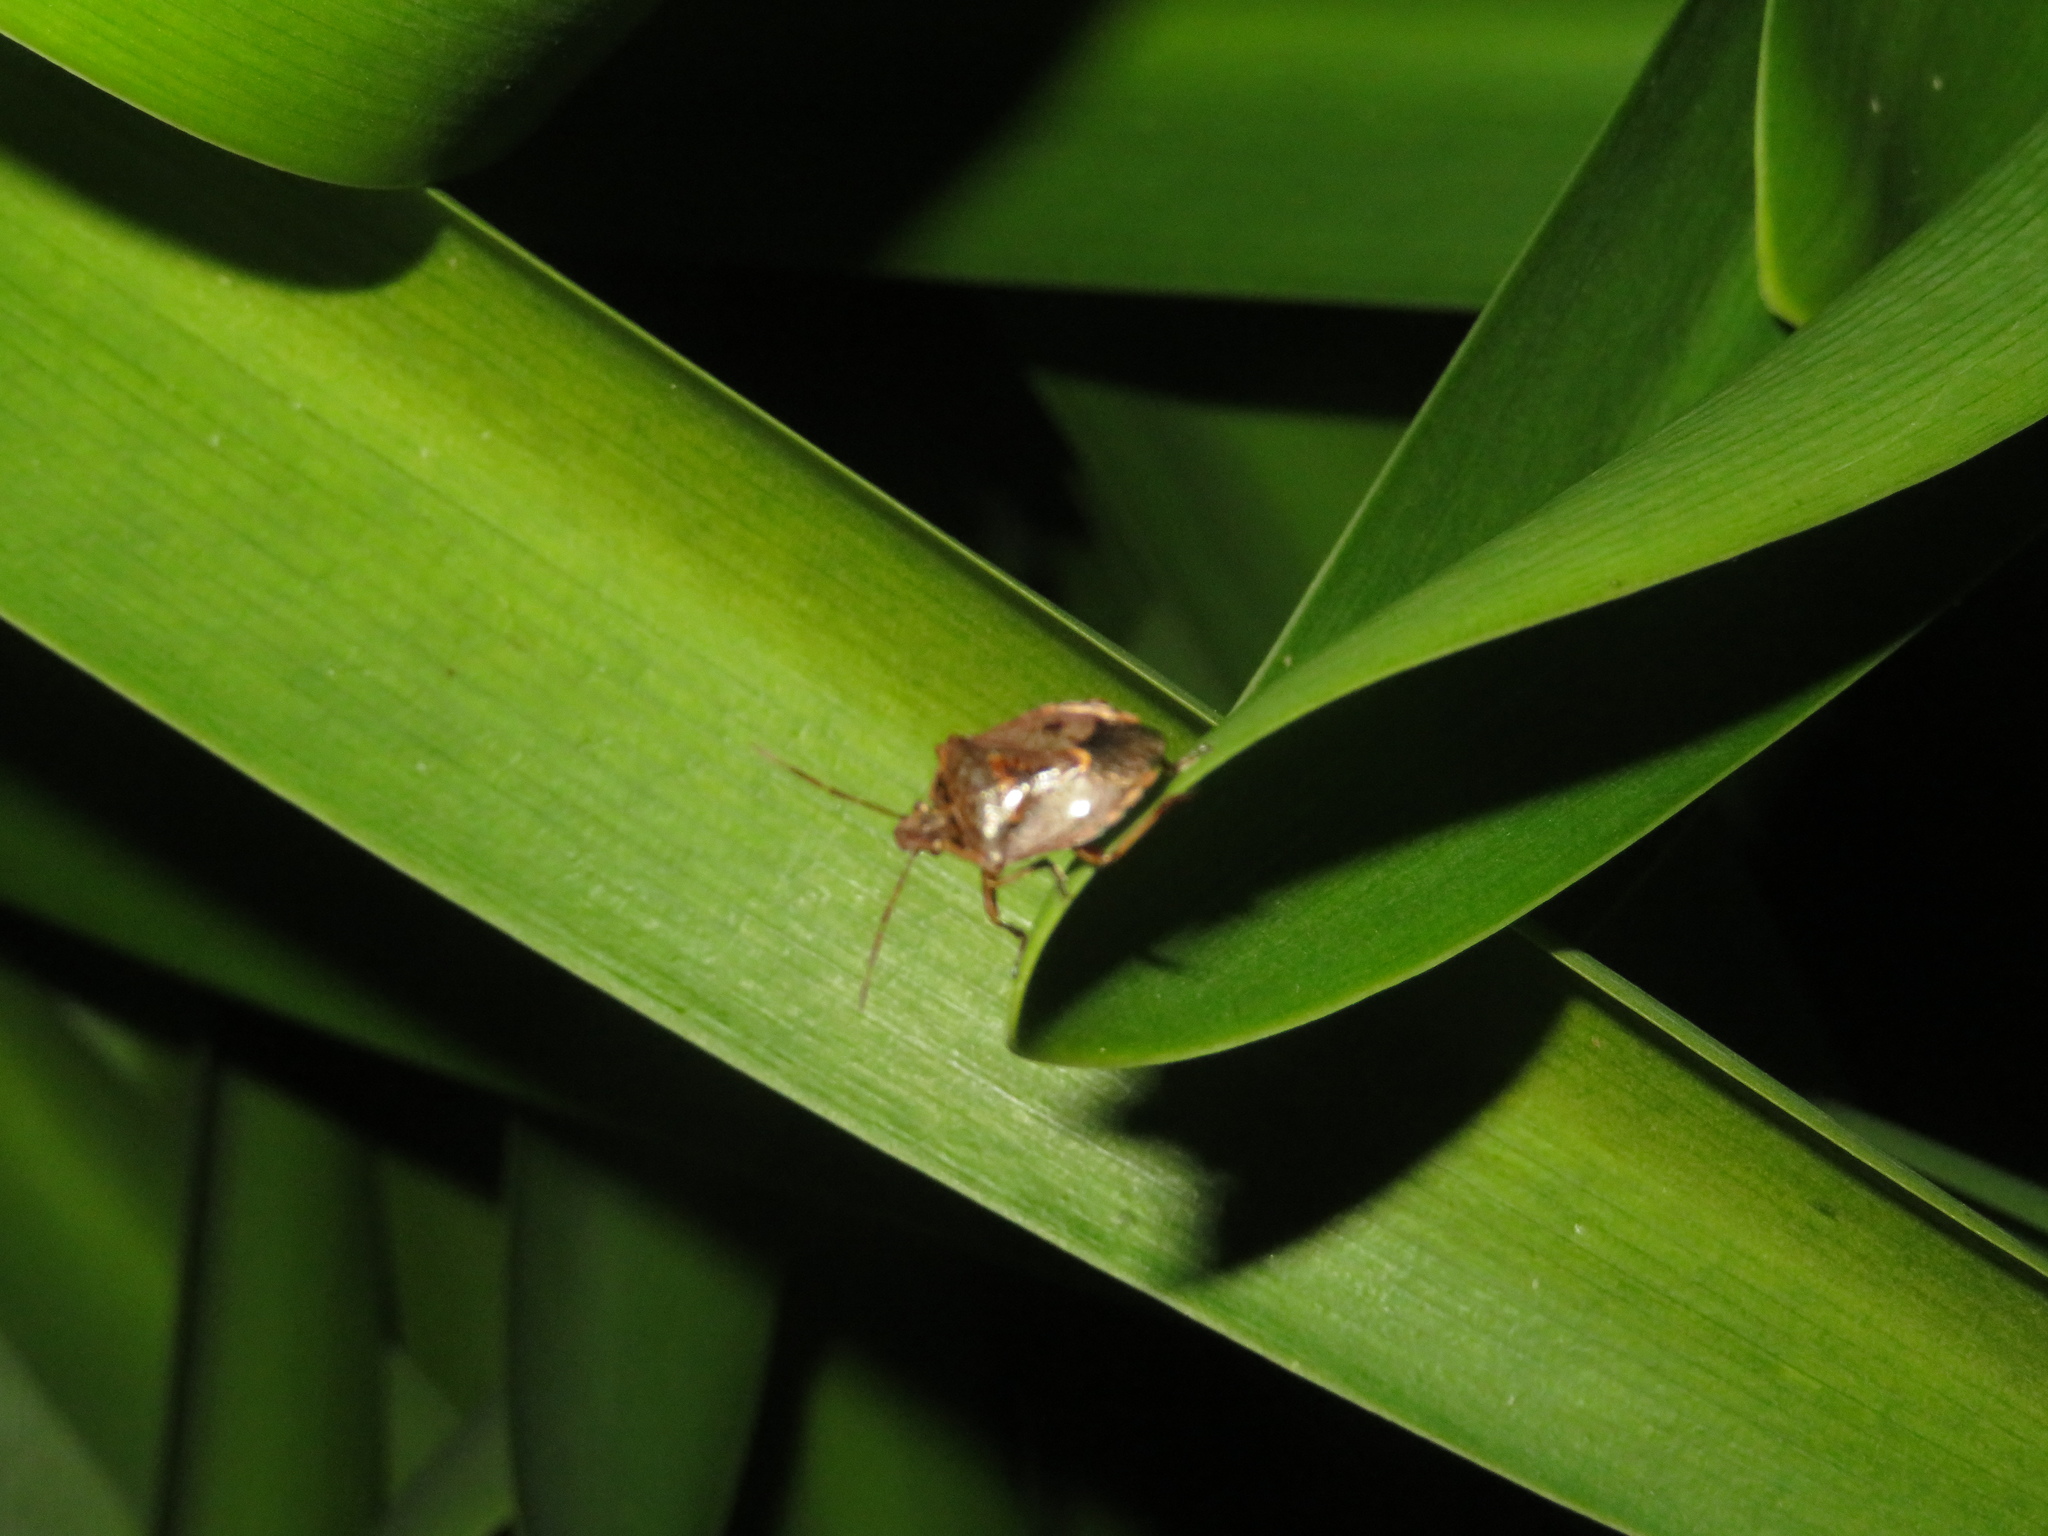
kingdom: Animalia
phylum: Arthropoda
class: Insecta
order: Hemiptera
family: Pentatomidae
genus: Cermatulus
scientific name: Cermatulus nasalis
